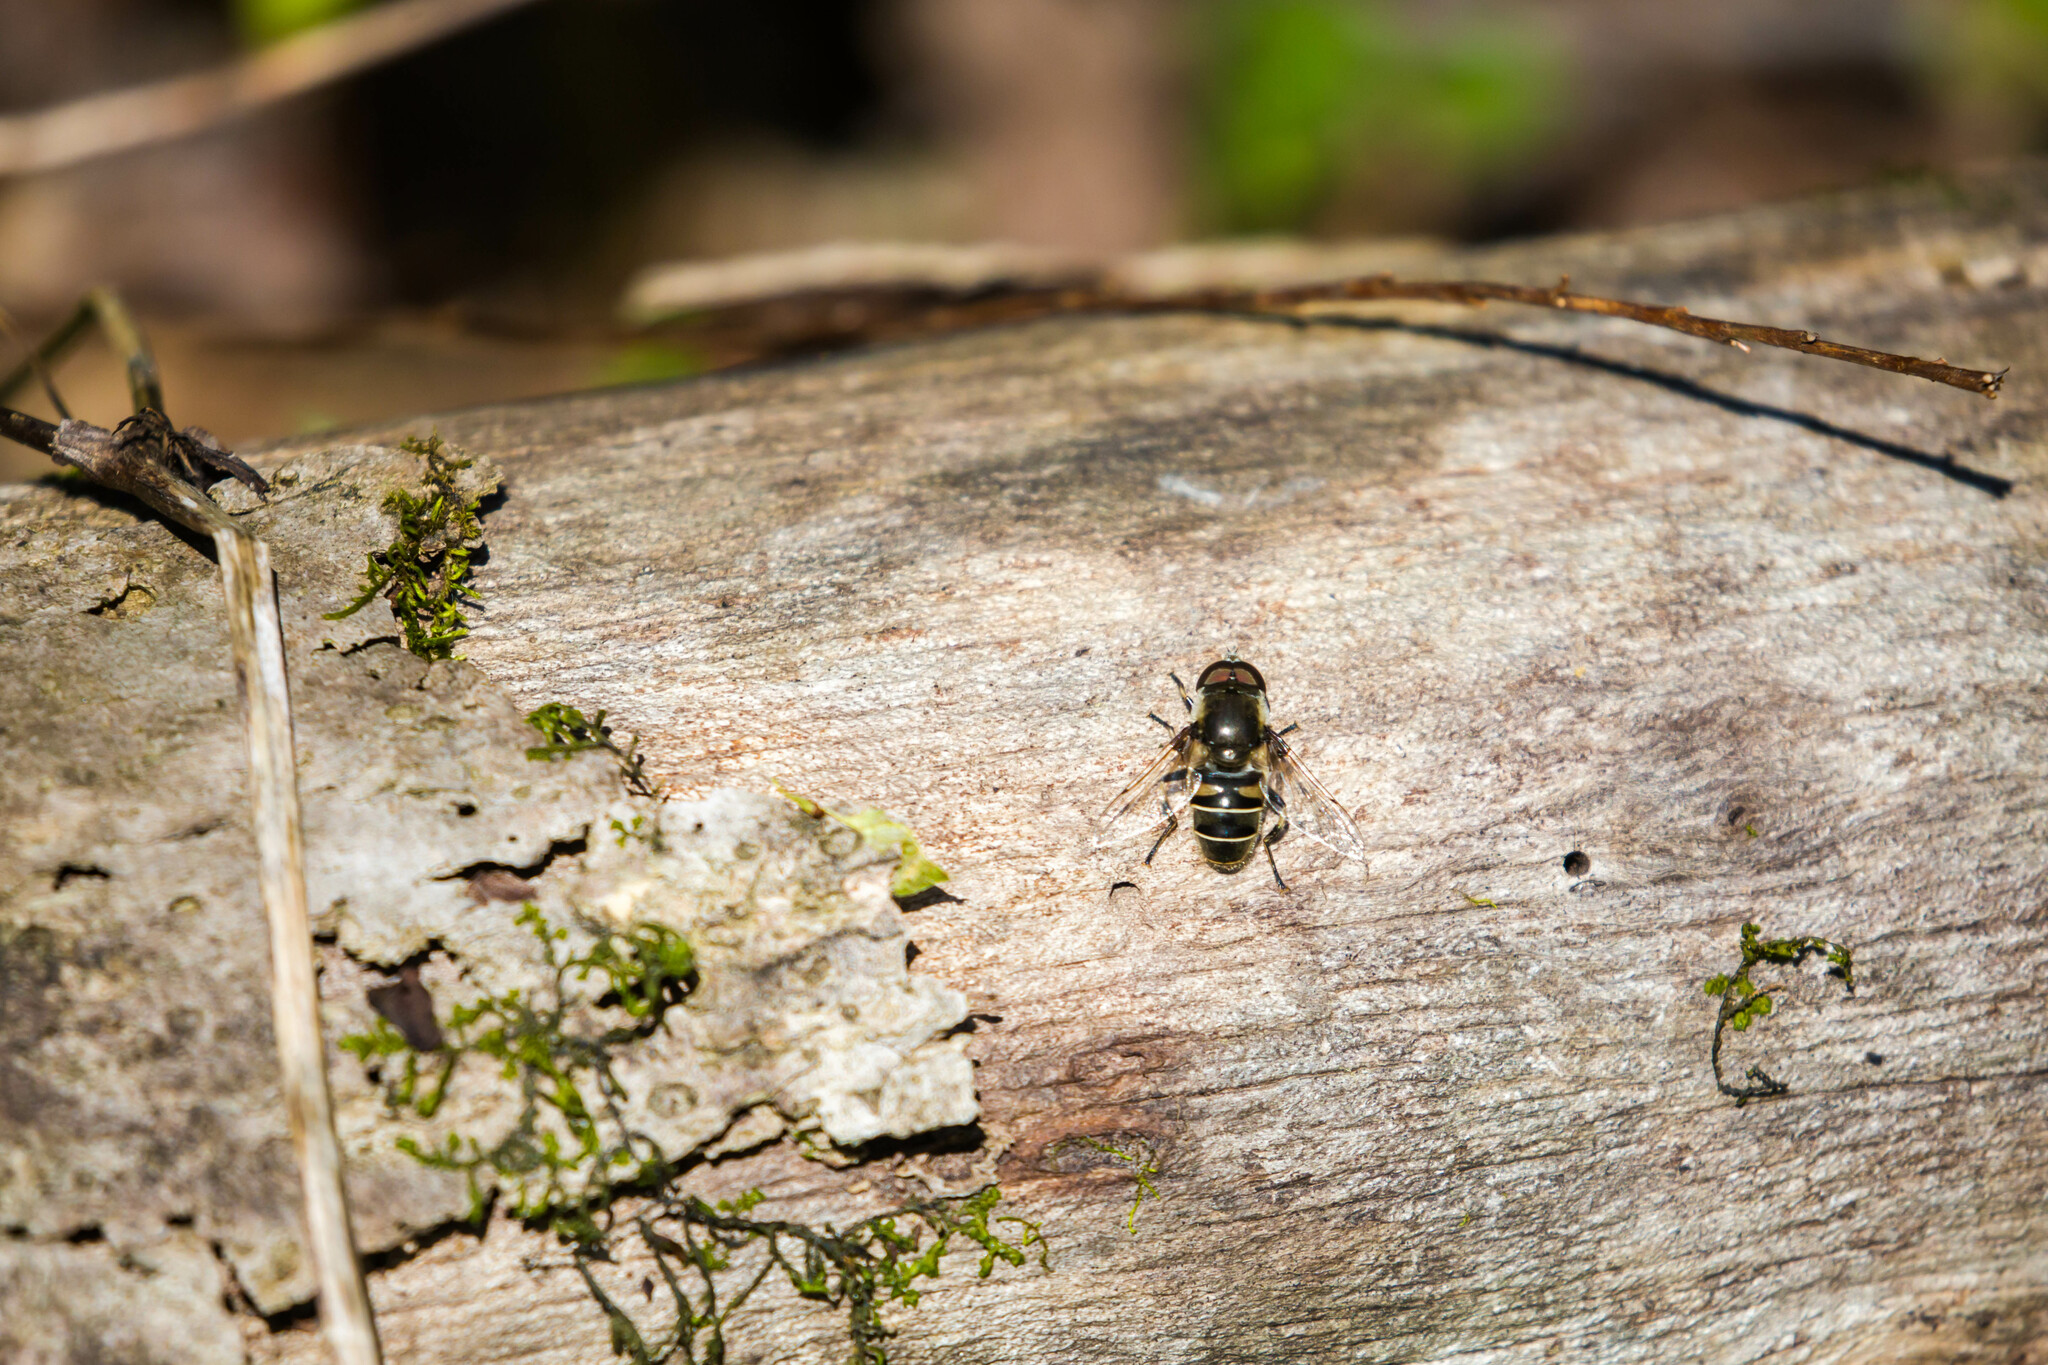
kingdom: Animalia
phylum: Arthropoda
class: Insecta
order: Diptera
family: Syrphidae
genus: Eristalis
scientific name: Eristalis dimidiata
